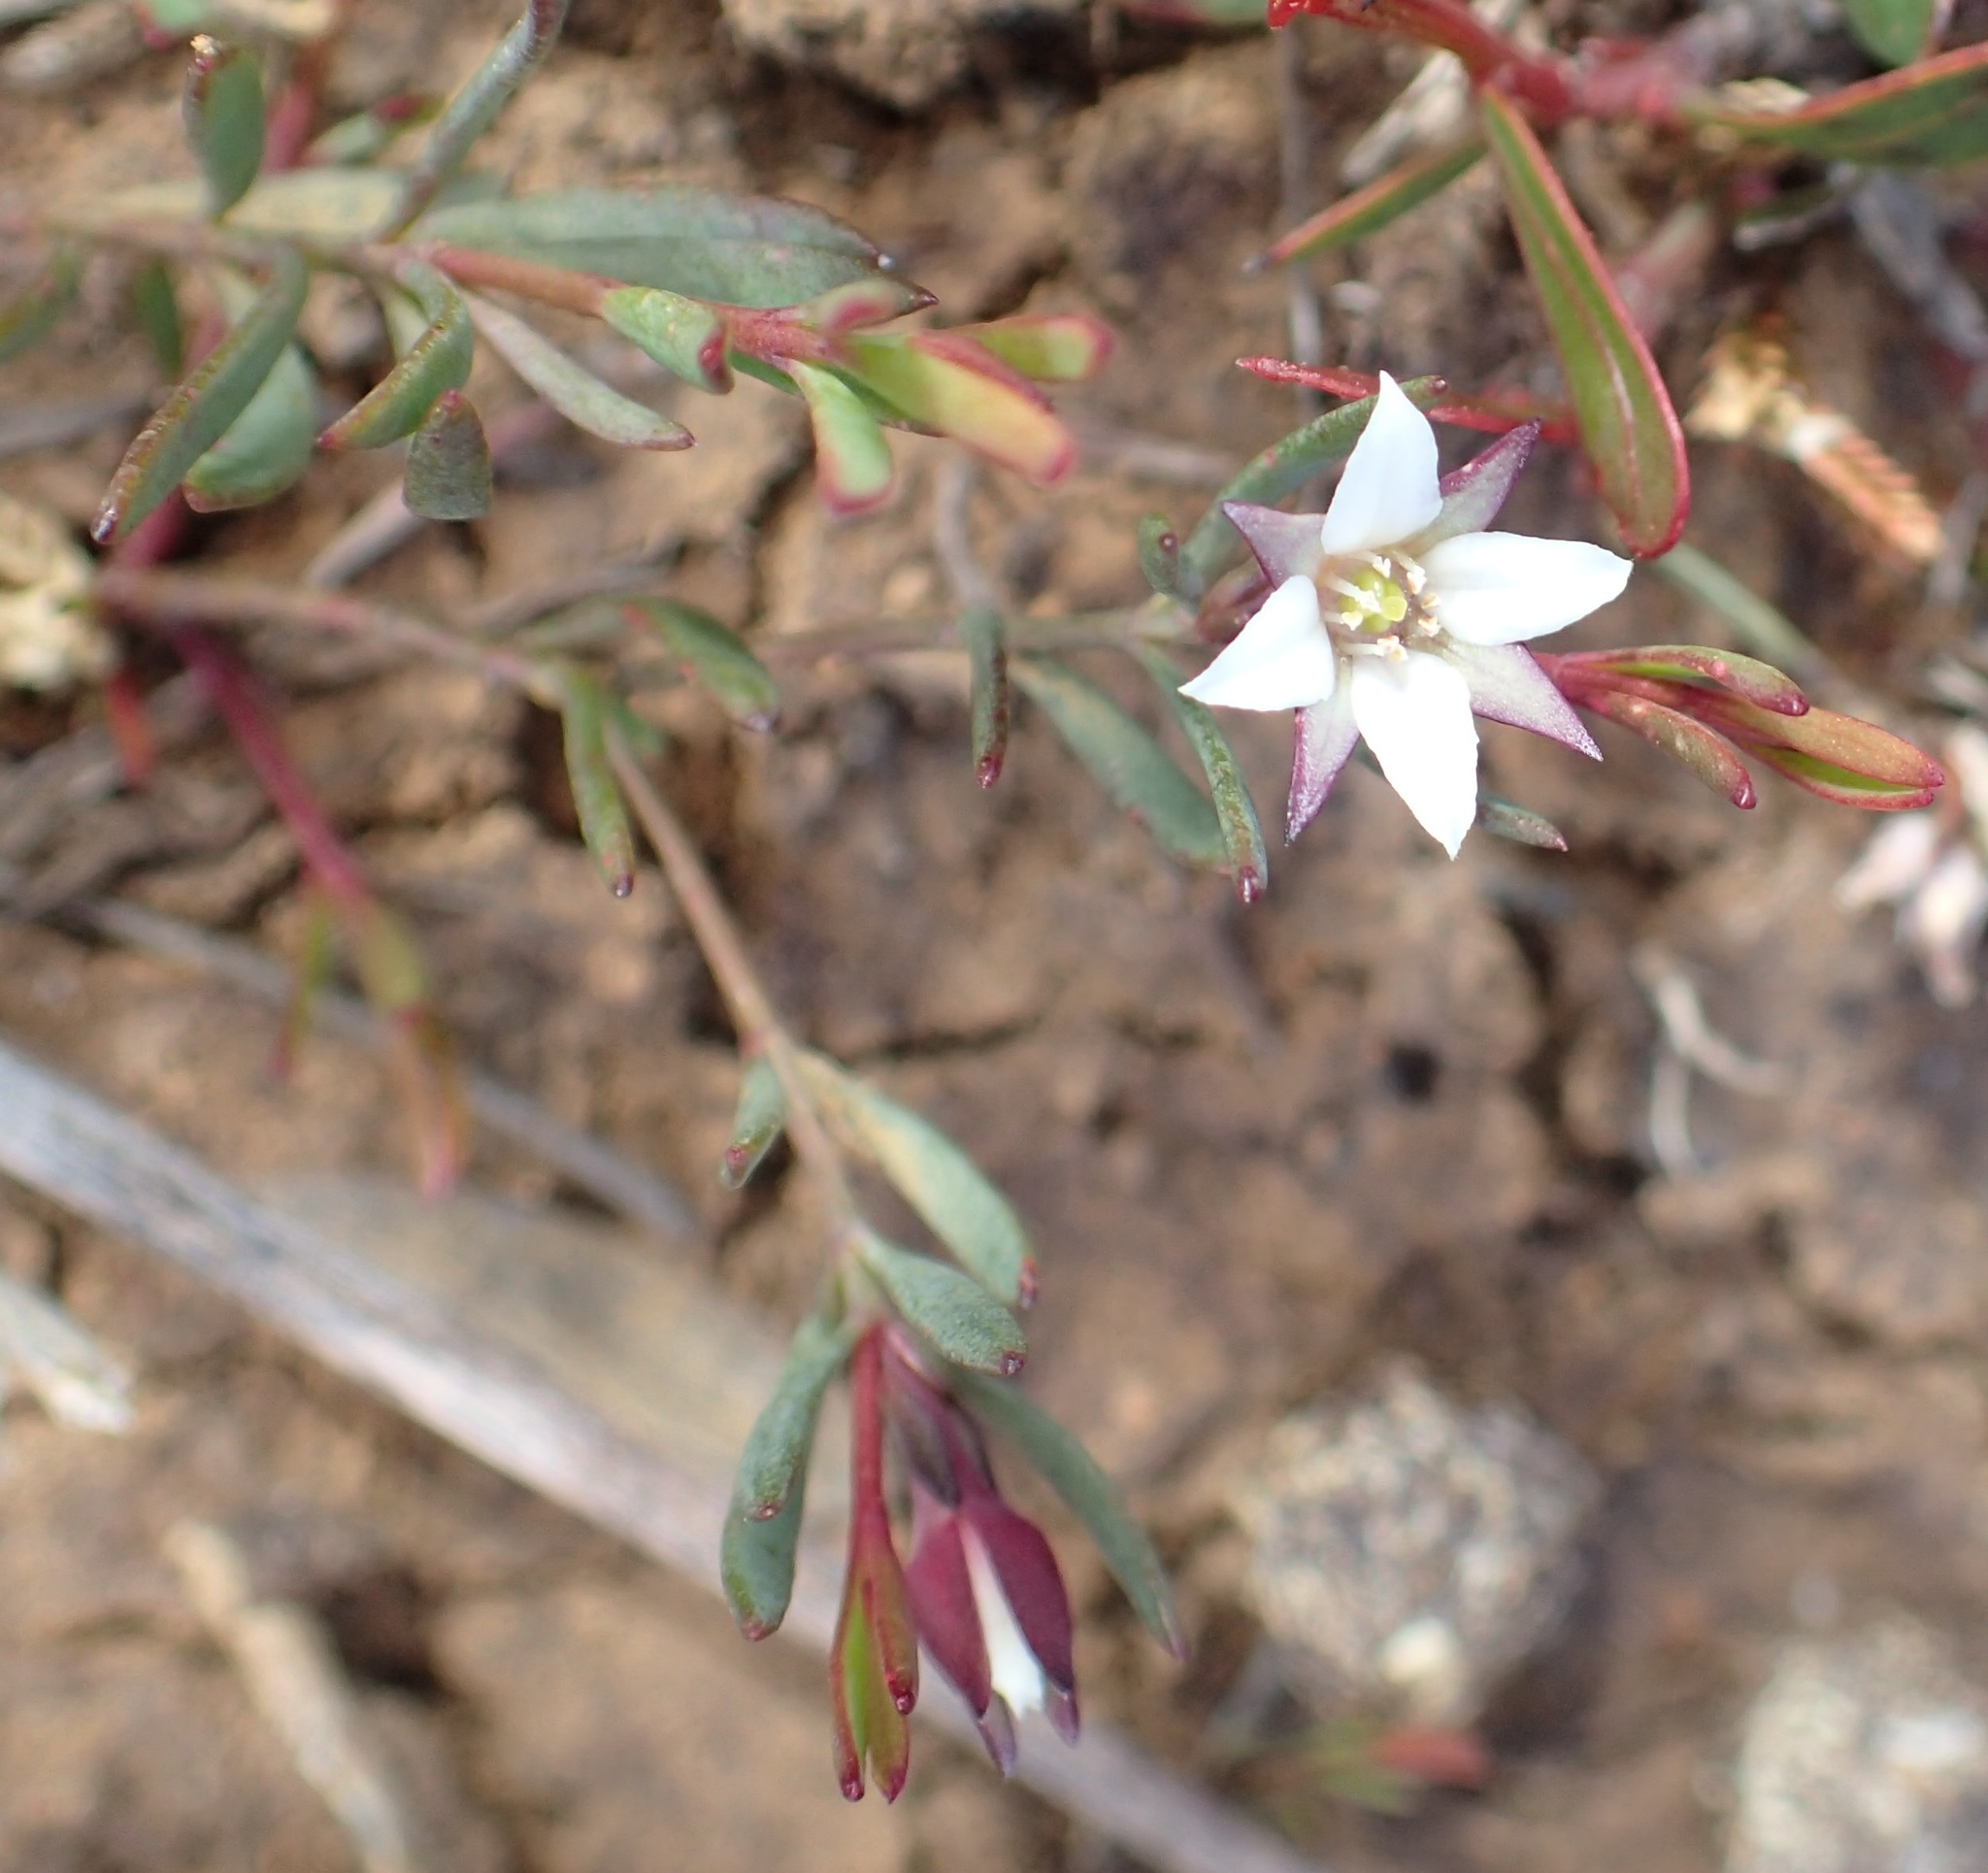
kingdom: Plantae
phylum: Tracheophyta
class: Magnoliopsida
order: Sapindales
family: Rutaceae
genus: Boronia
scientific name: Boronia parviflora
